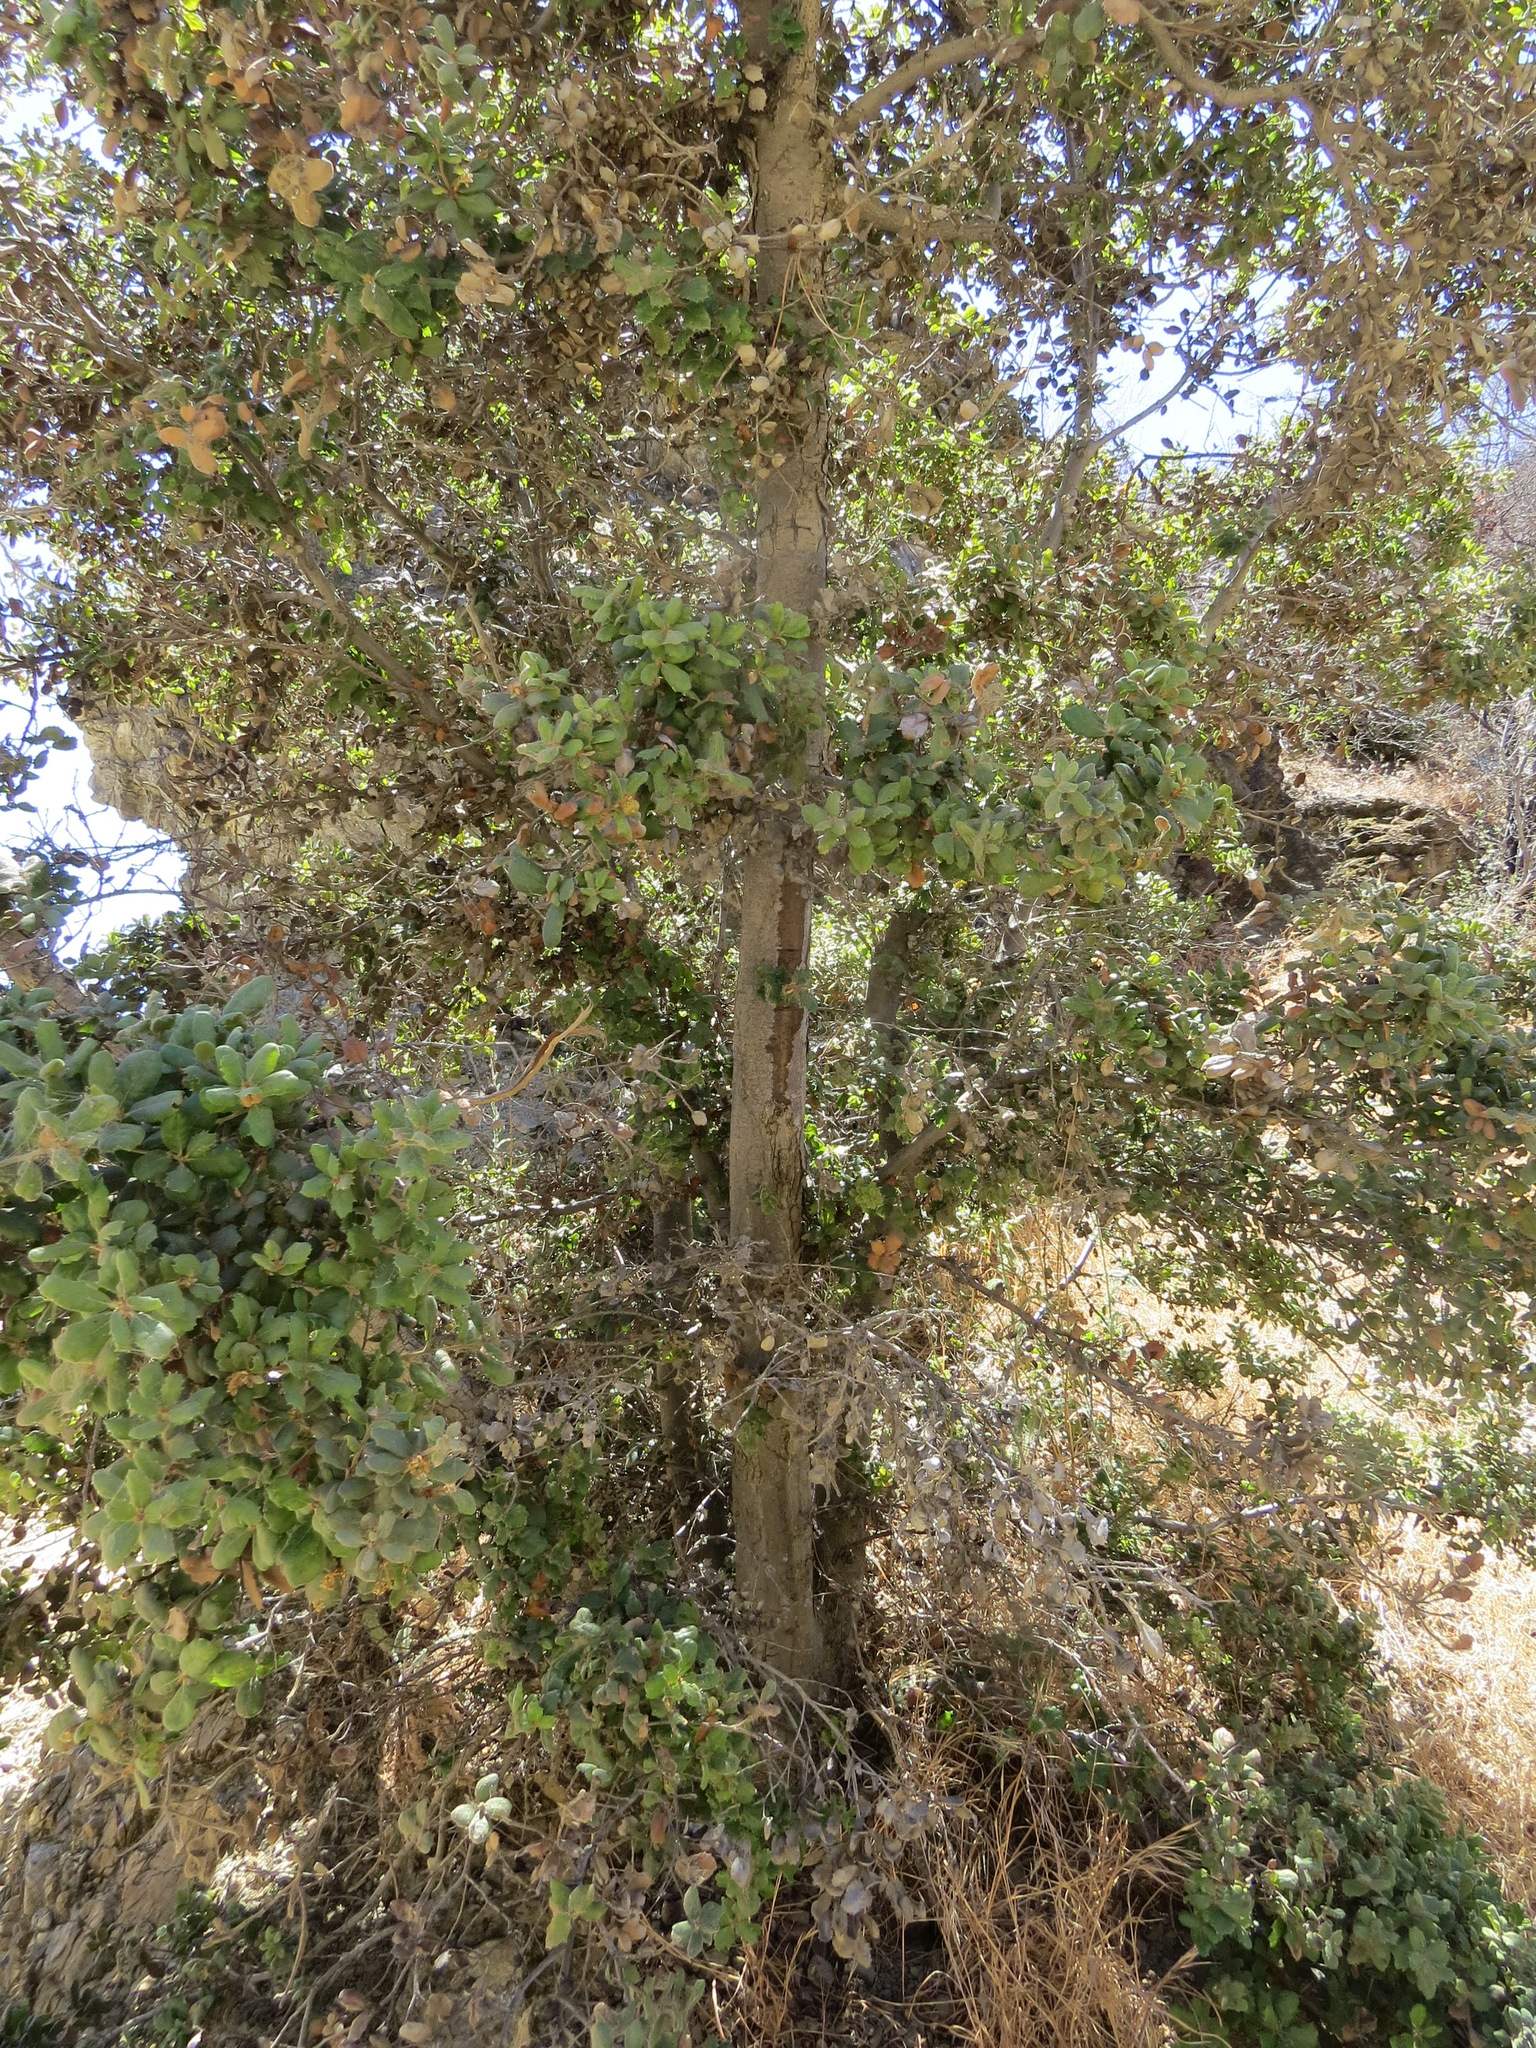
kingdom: Plantae
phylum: Tracheophyta
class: Magnoliopsida
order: Fagales
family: Fagaceae
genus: Quercus
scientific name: Quercus durata
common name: Leather oak
